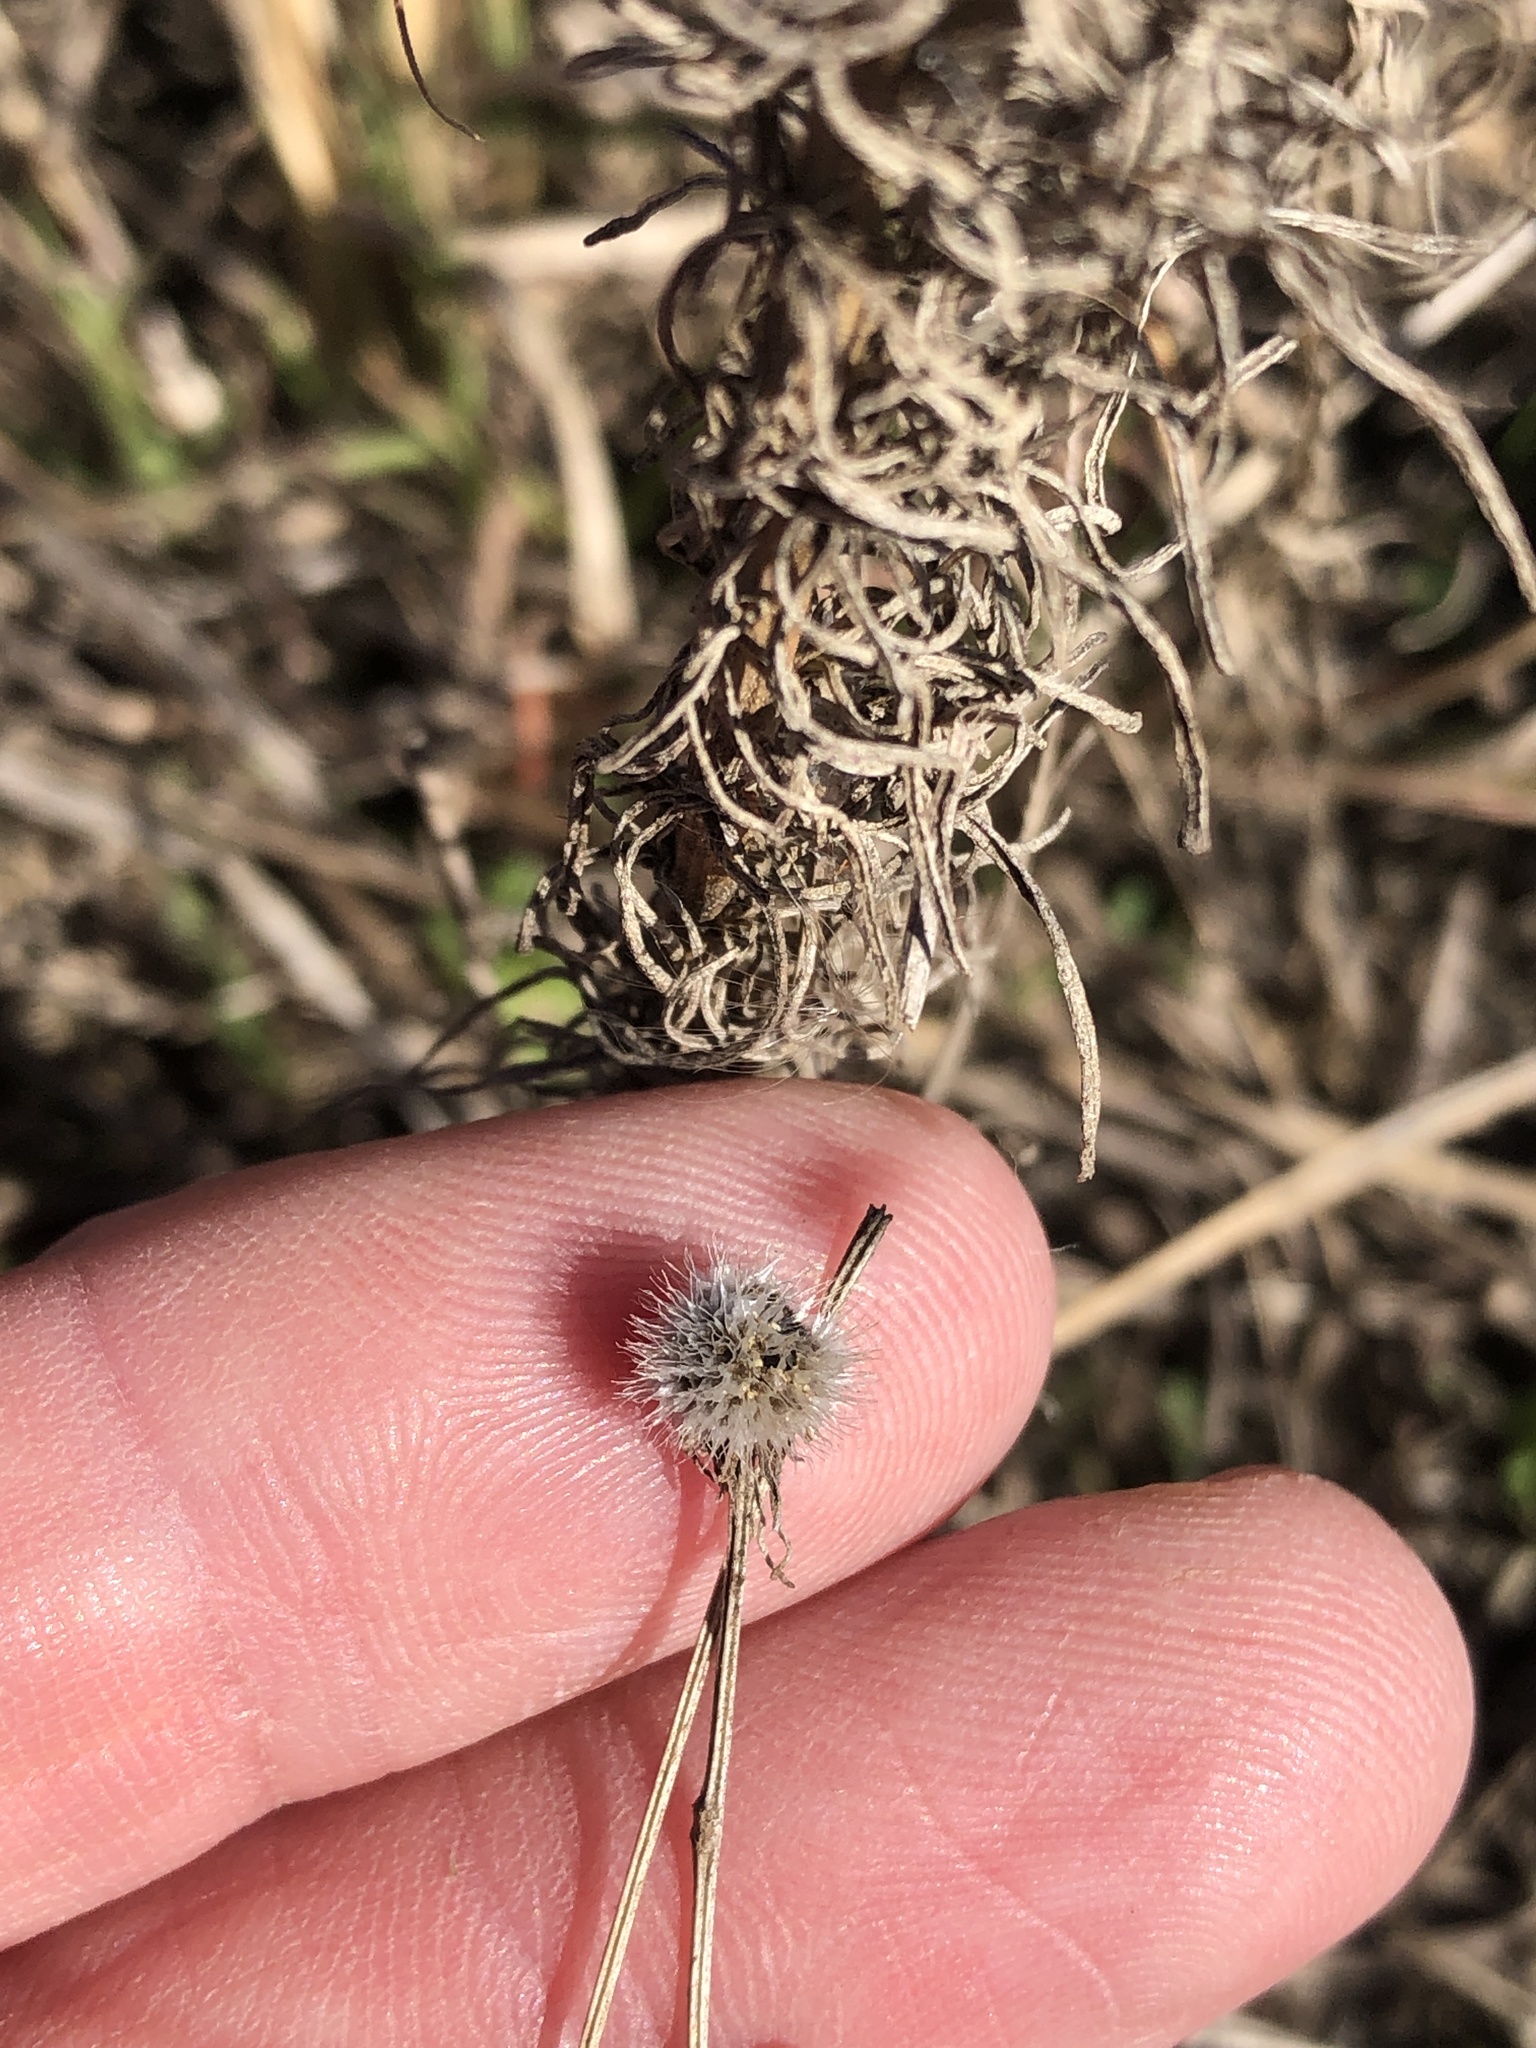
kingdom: Plantae
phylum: Tracheophyta
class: Magnoliopsida
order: Asterales
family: Asteraceae
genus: Helenium
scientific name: Helenium amarum
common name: Bitter sneezeweed
